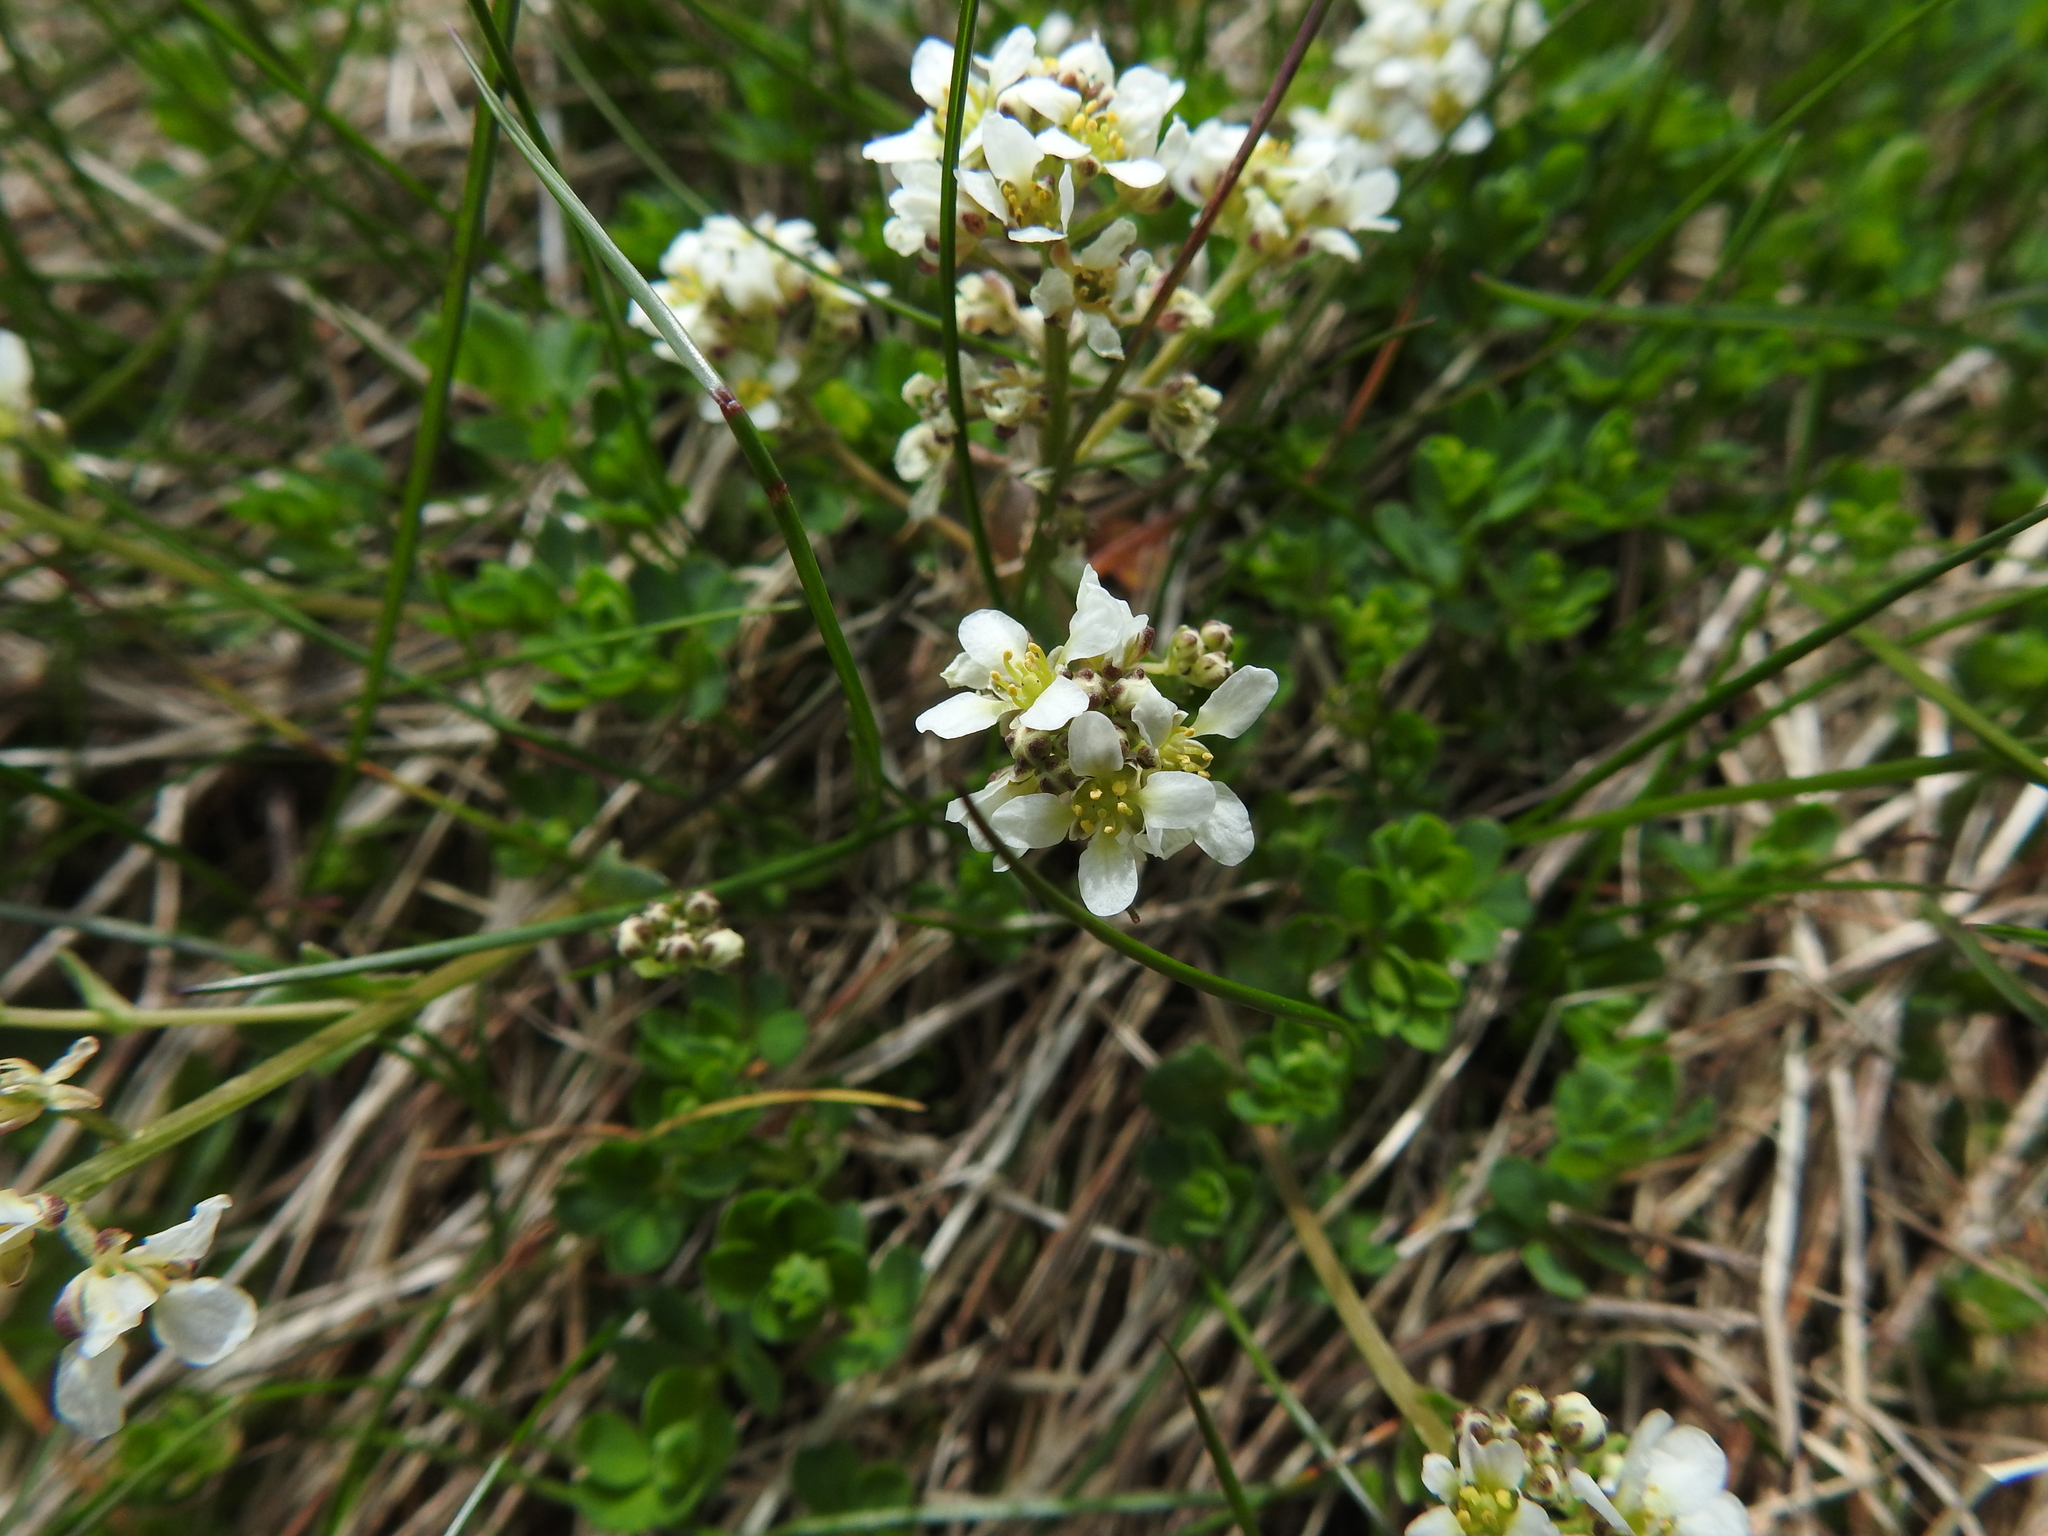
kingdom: Plantae
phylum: Tracheophyta
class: Magnoliopsida
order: Brassicales
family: Brassicaceae
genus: Cochlearia
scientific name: Cochlearia officinalis
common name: Scurvy-grass
